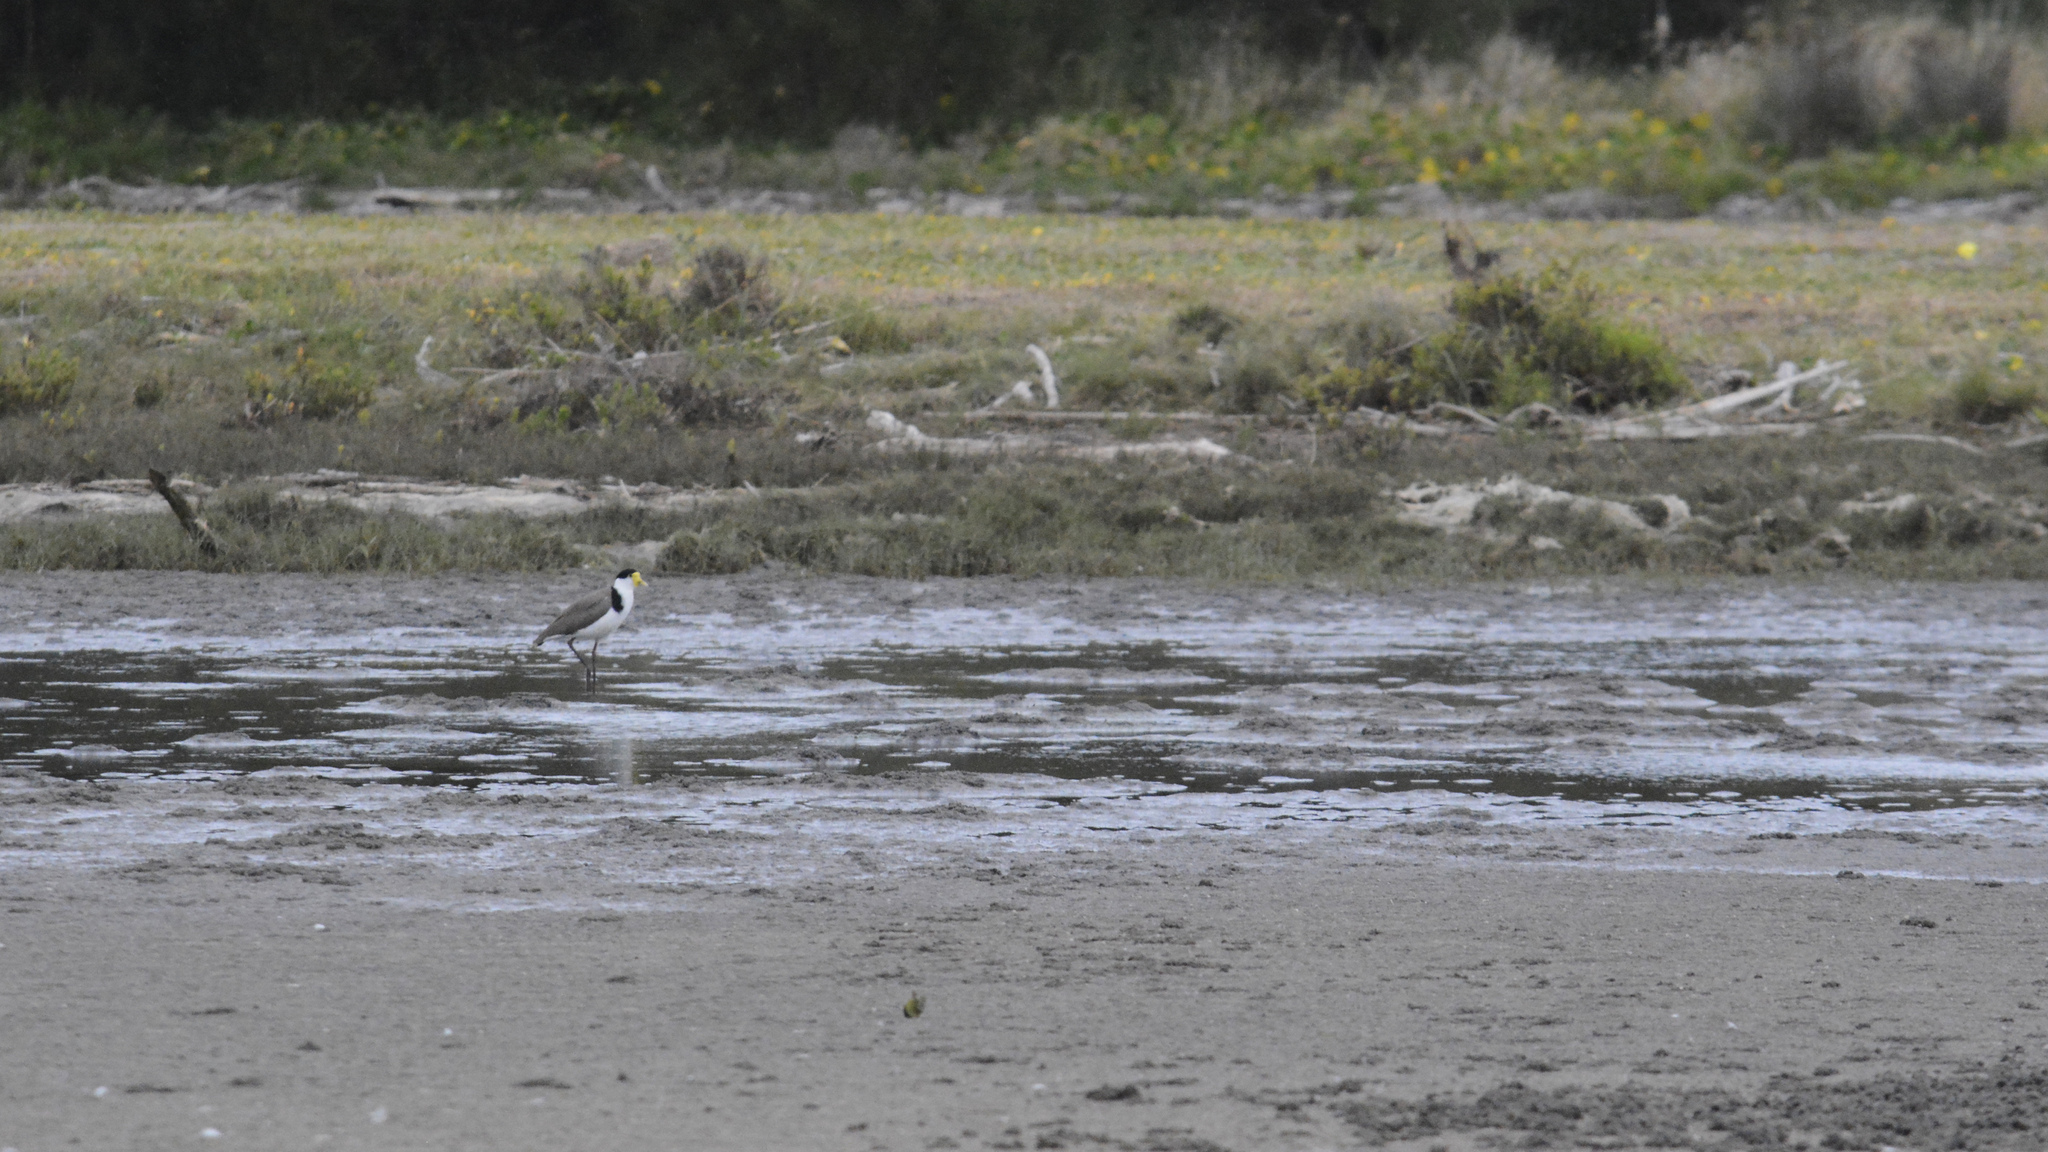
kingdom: Animalia
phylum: Chordata
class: Aves
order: Charadriiformes
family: Charadriidae
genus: Vanellus
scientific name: Vanellus miles
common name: Masked lapwing
